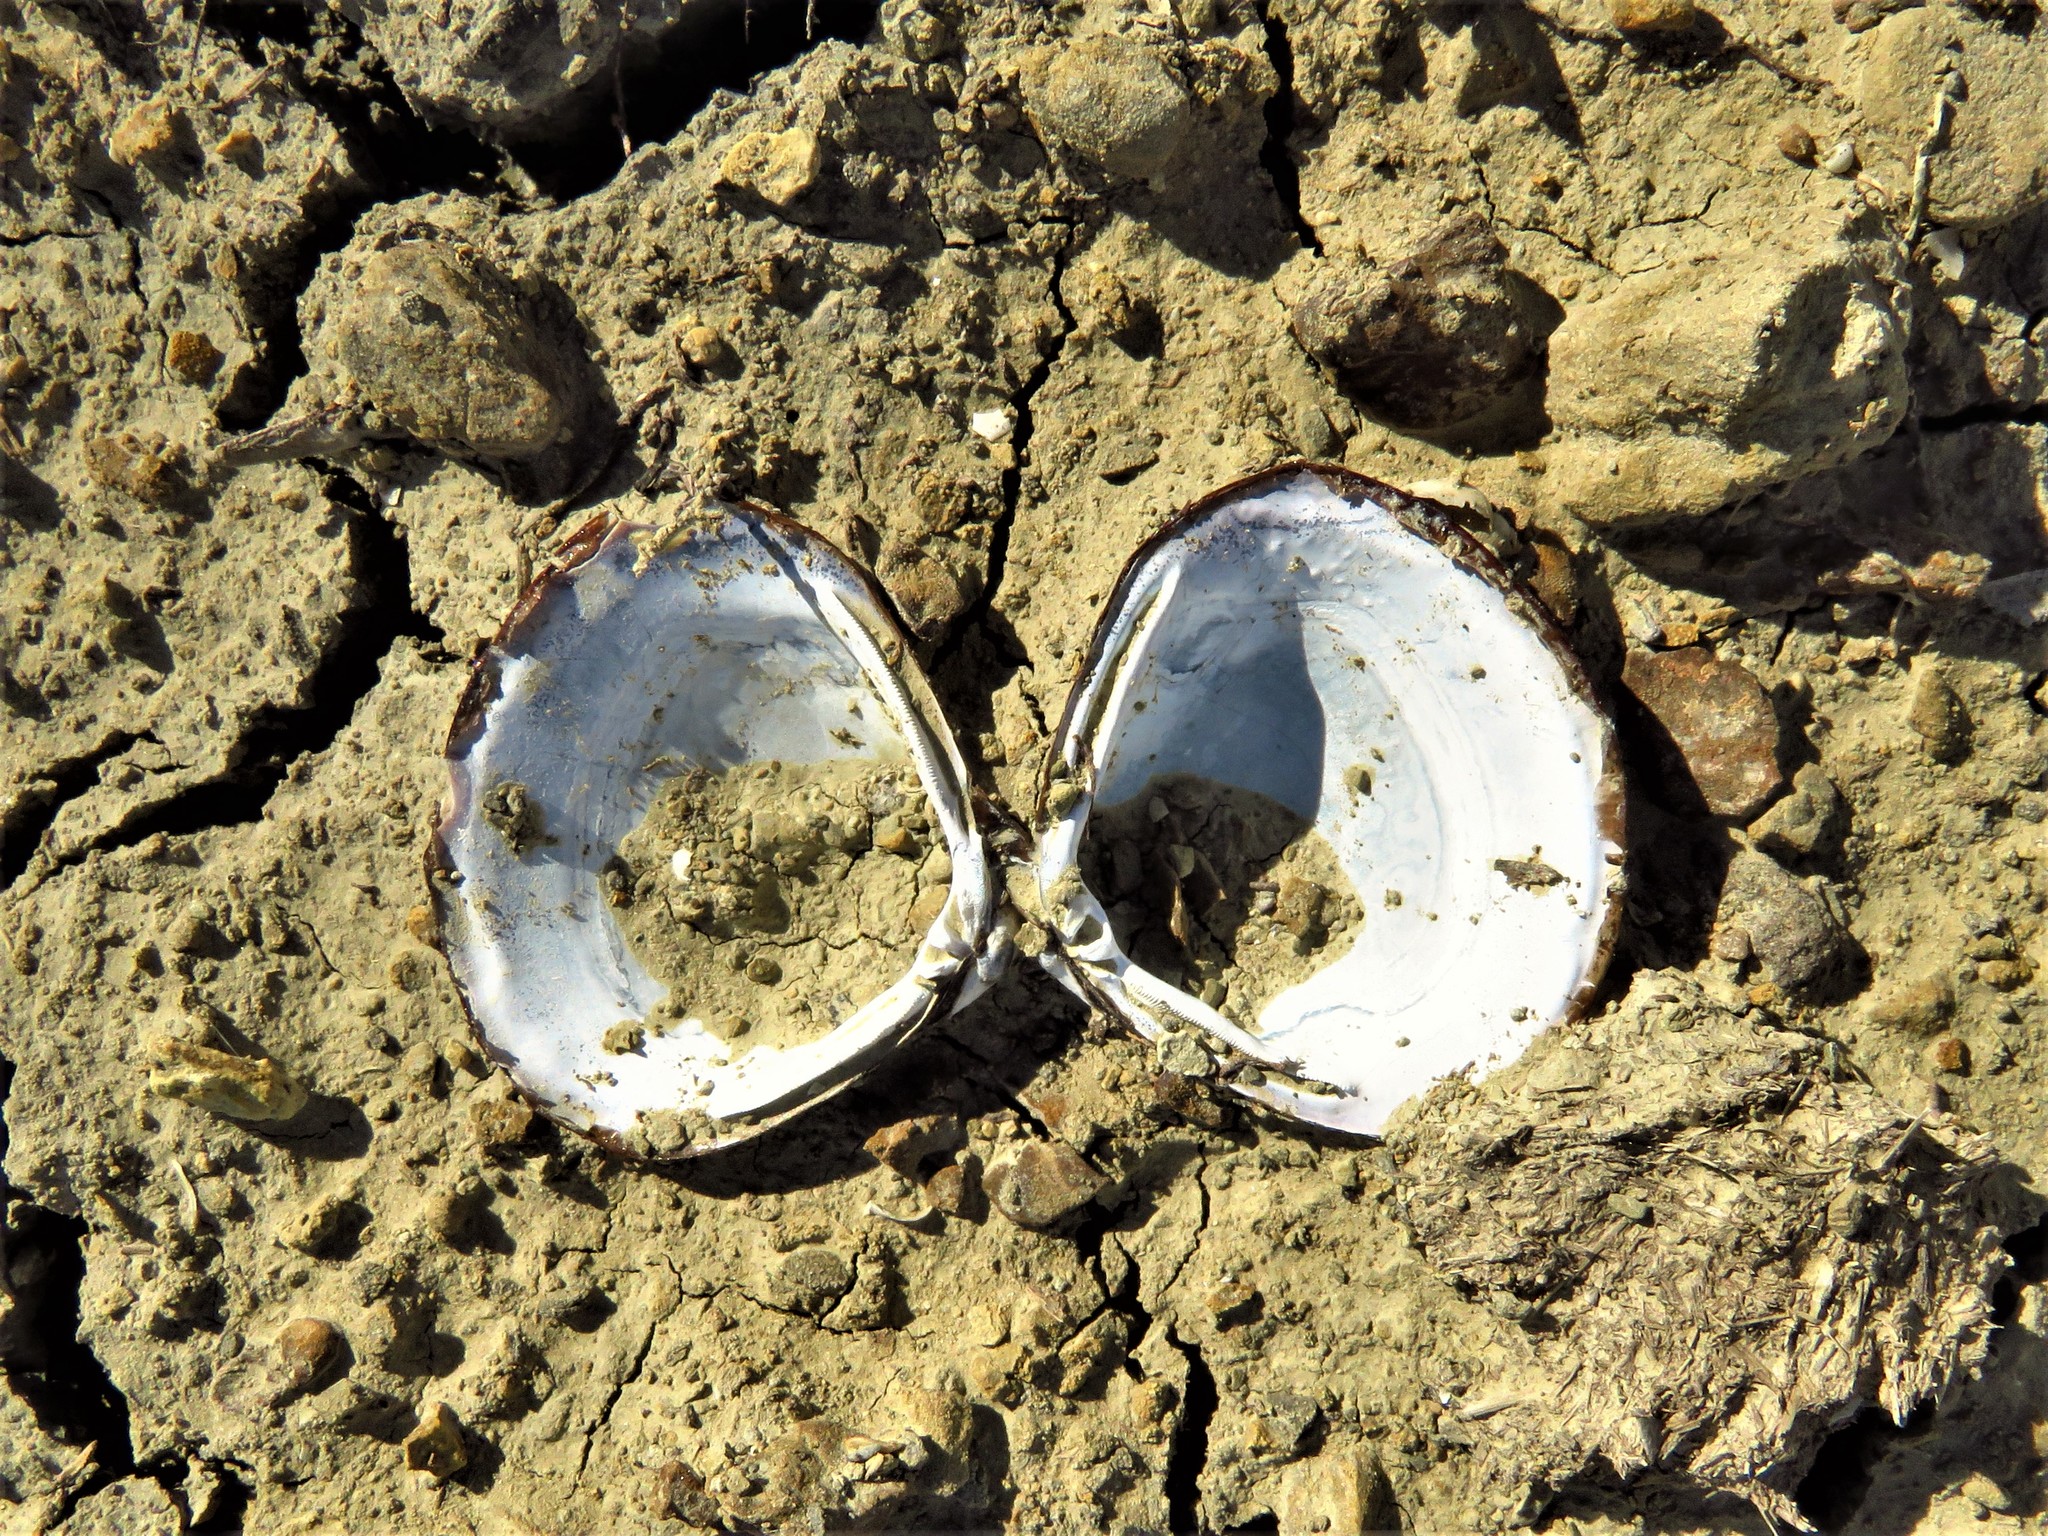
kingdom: Animalia
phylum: Mollusca
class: Bivalvia
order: Venerida
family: Cyrenidae
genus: Corbicula
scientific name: Corbicula fluminea
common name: Asian clam
